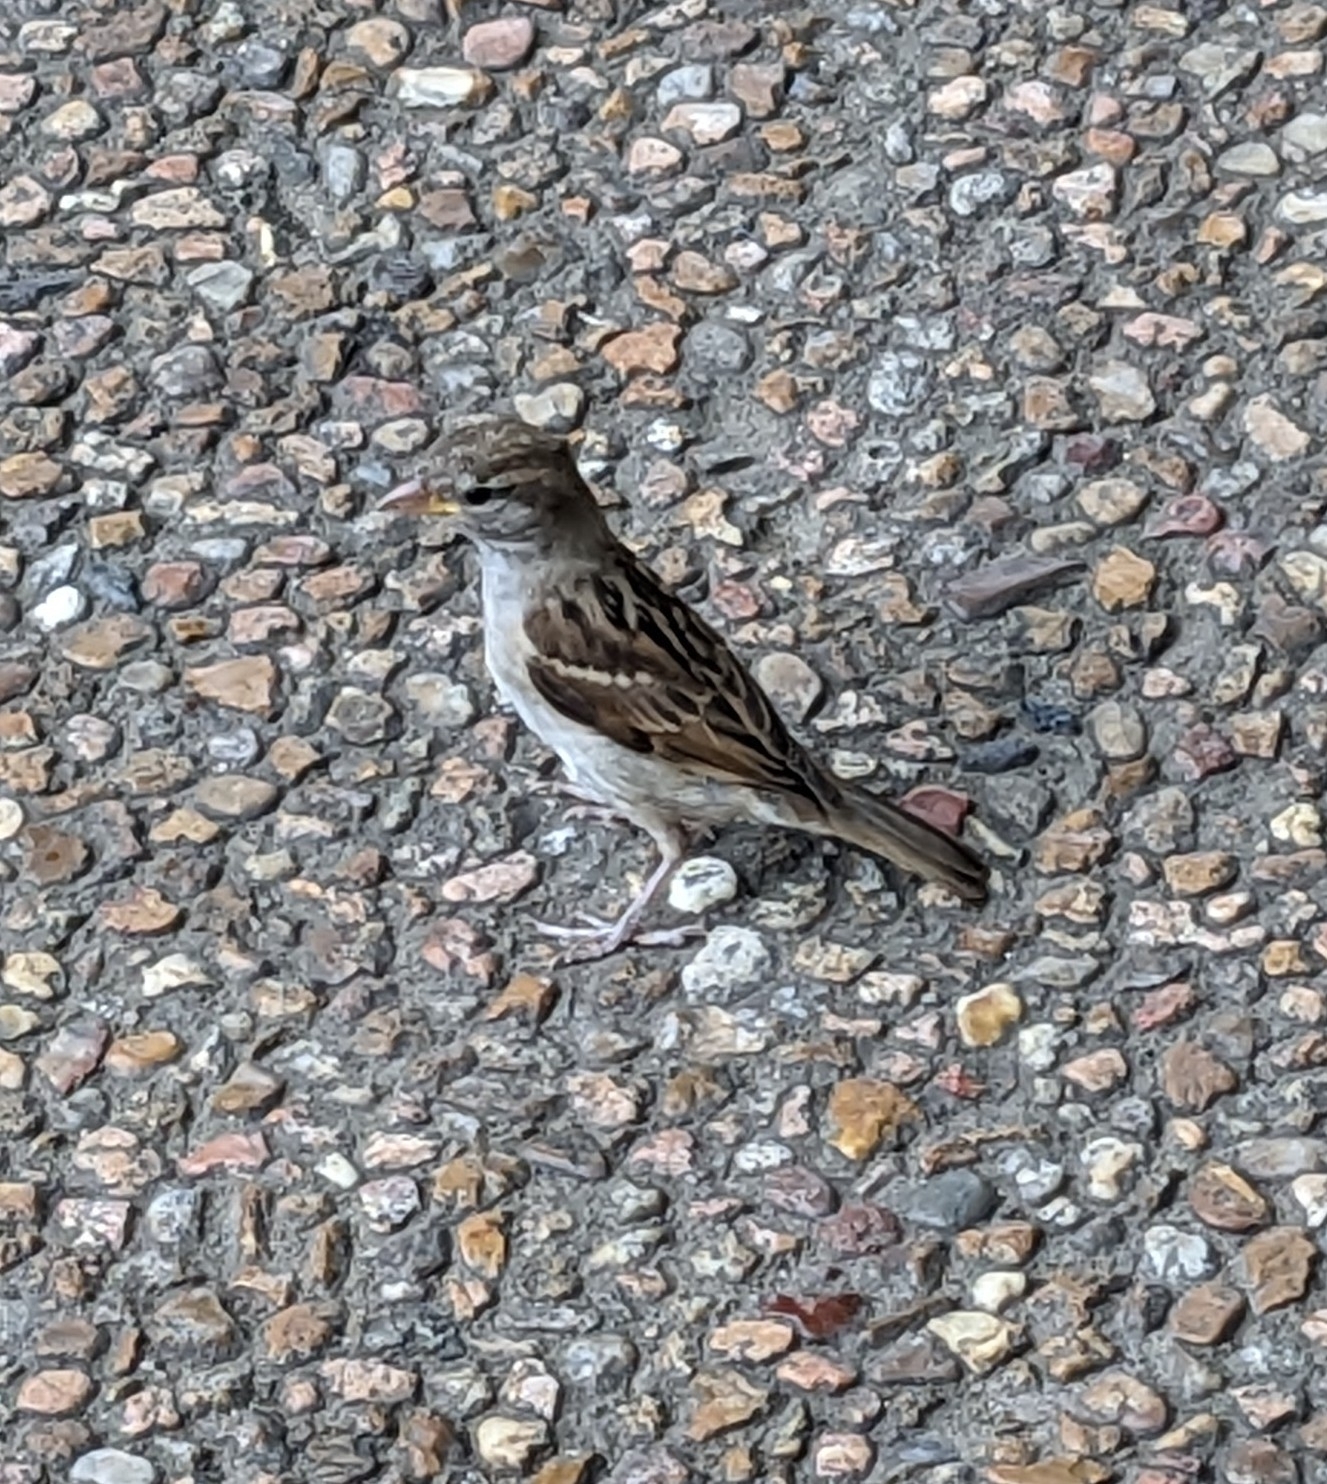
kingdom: Animalia
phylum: Chordata
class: Aves
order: Passeriformes
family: Passeridae
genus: Passer
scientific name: Passer domesticus
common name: House sparrow
